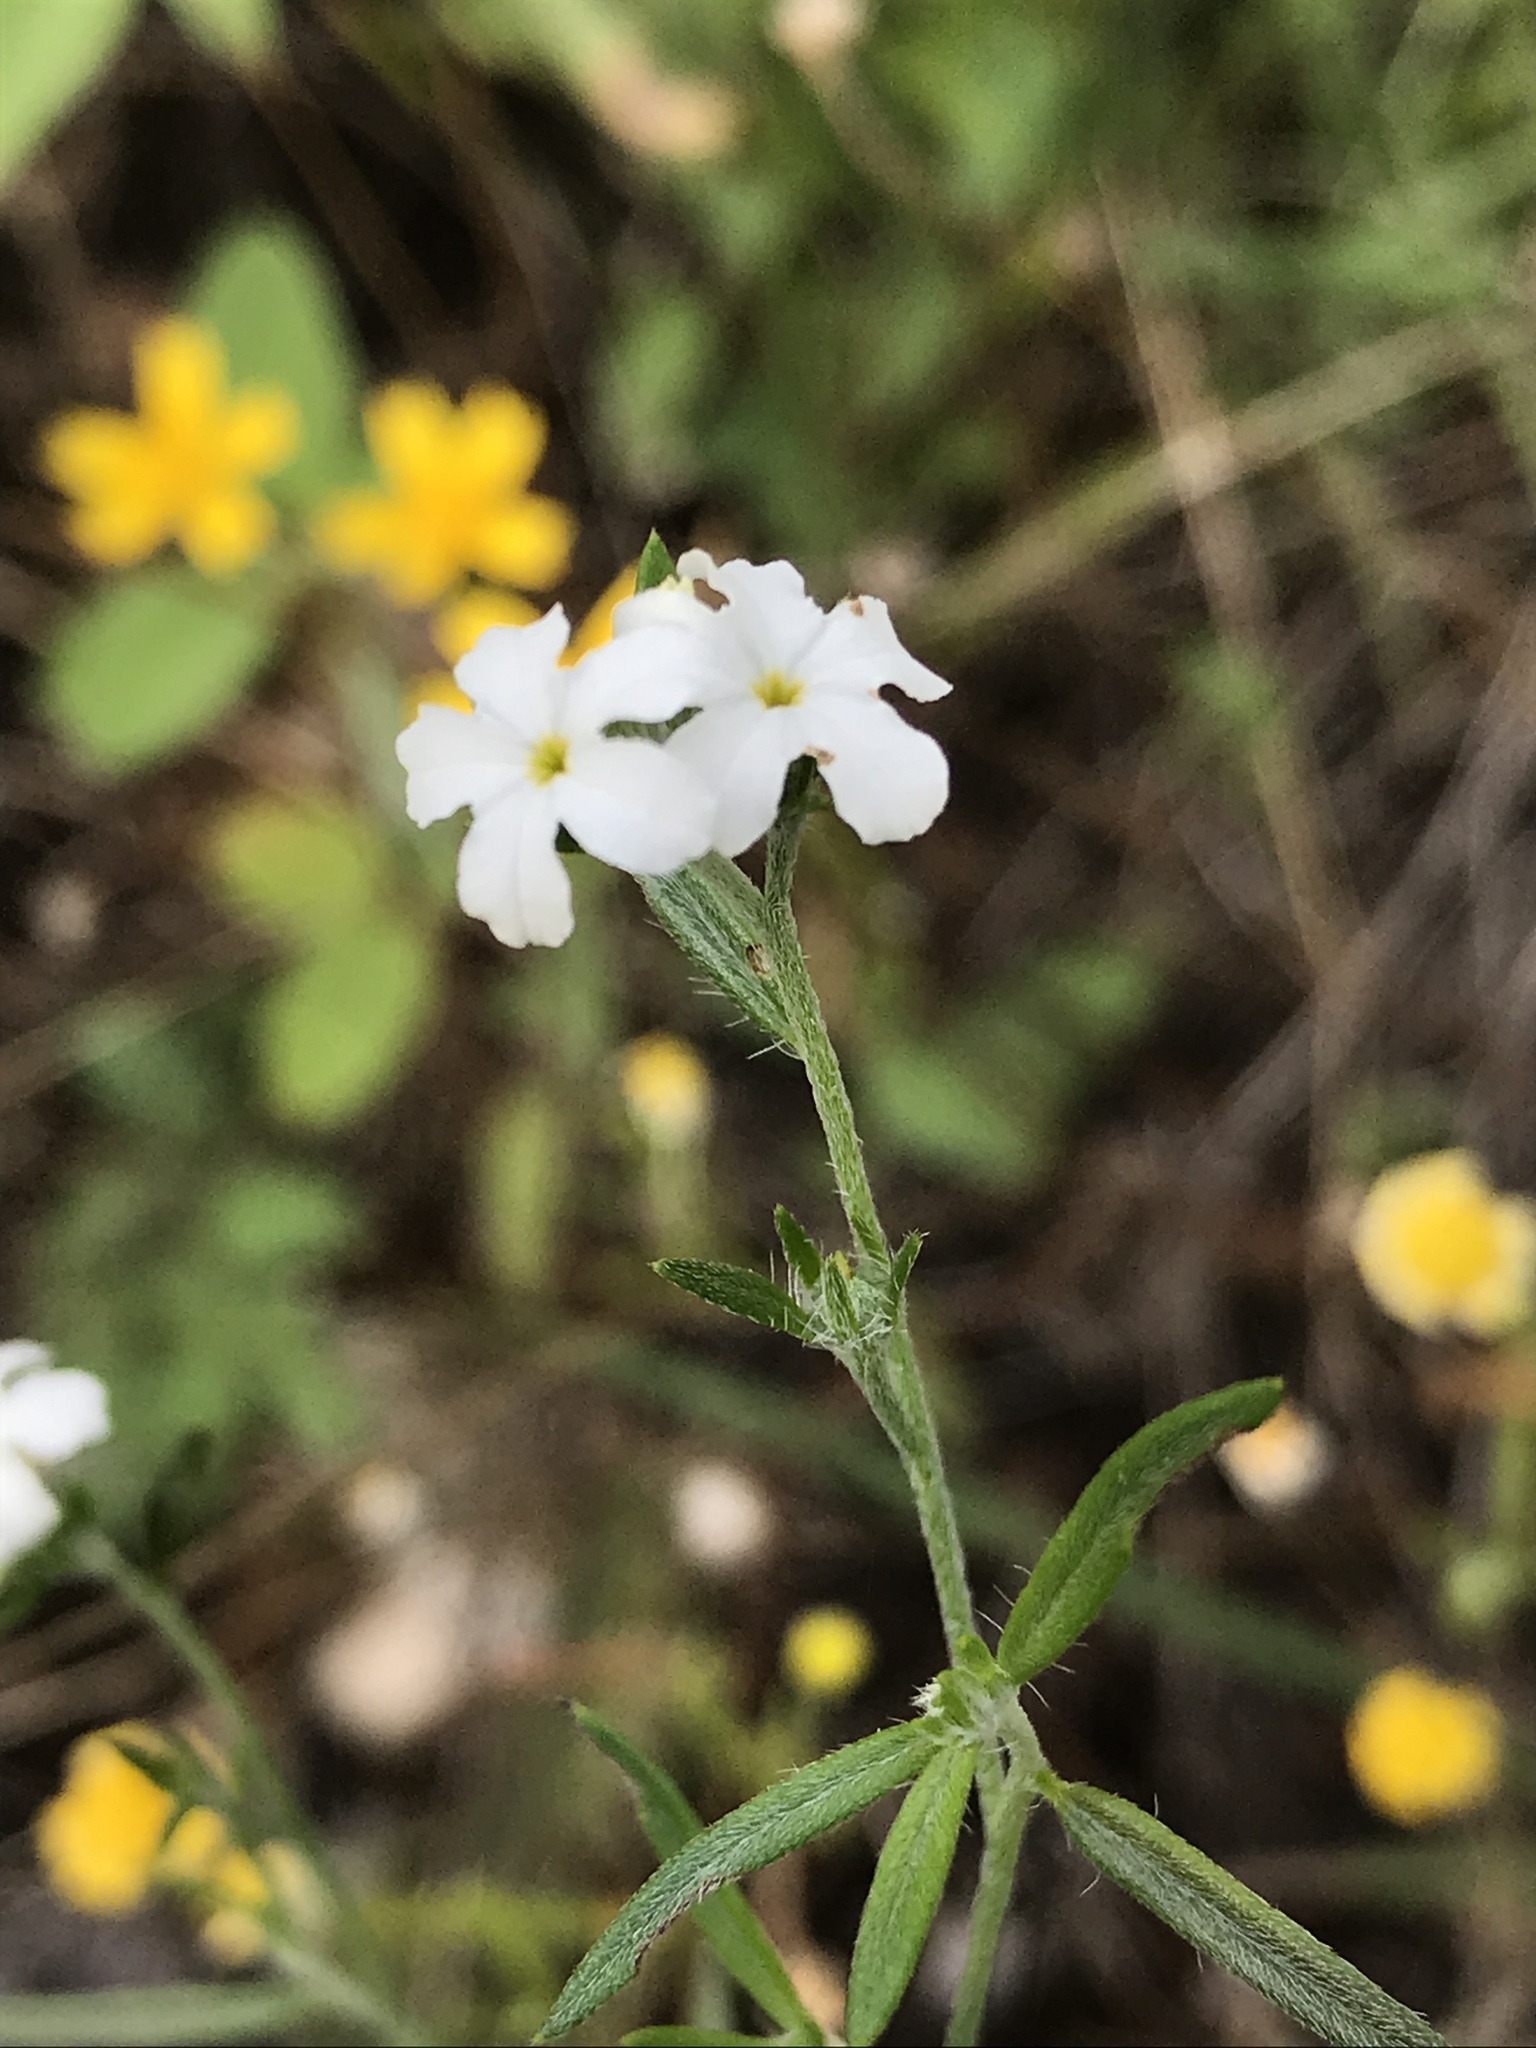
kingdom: Plantae
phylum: Tracheophyta
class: Magnoliopsida
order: Boraginales
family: Heliotropiaceae
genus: Euploca
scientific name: Euploca tenella
